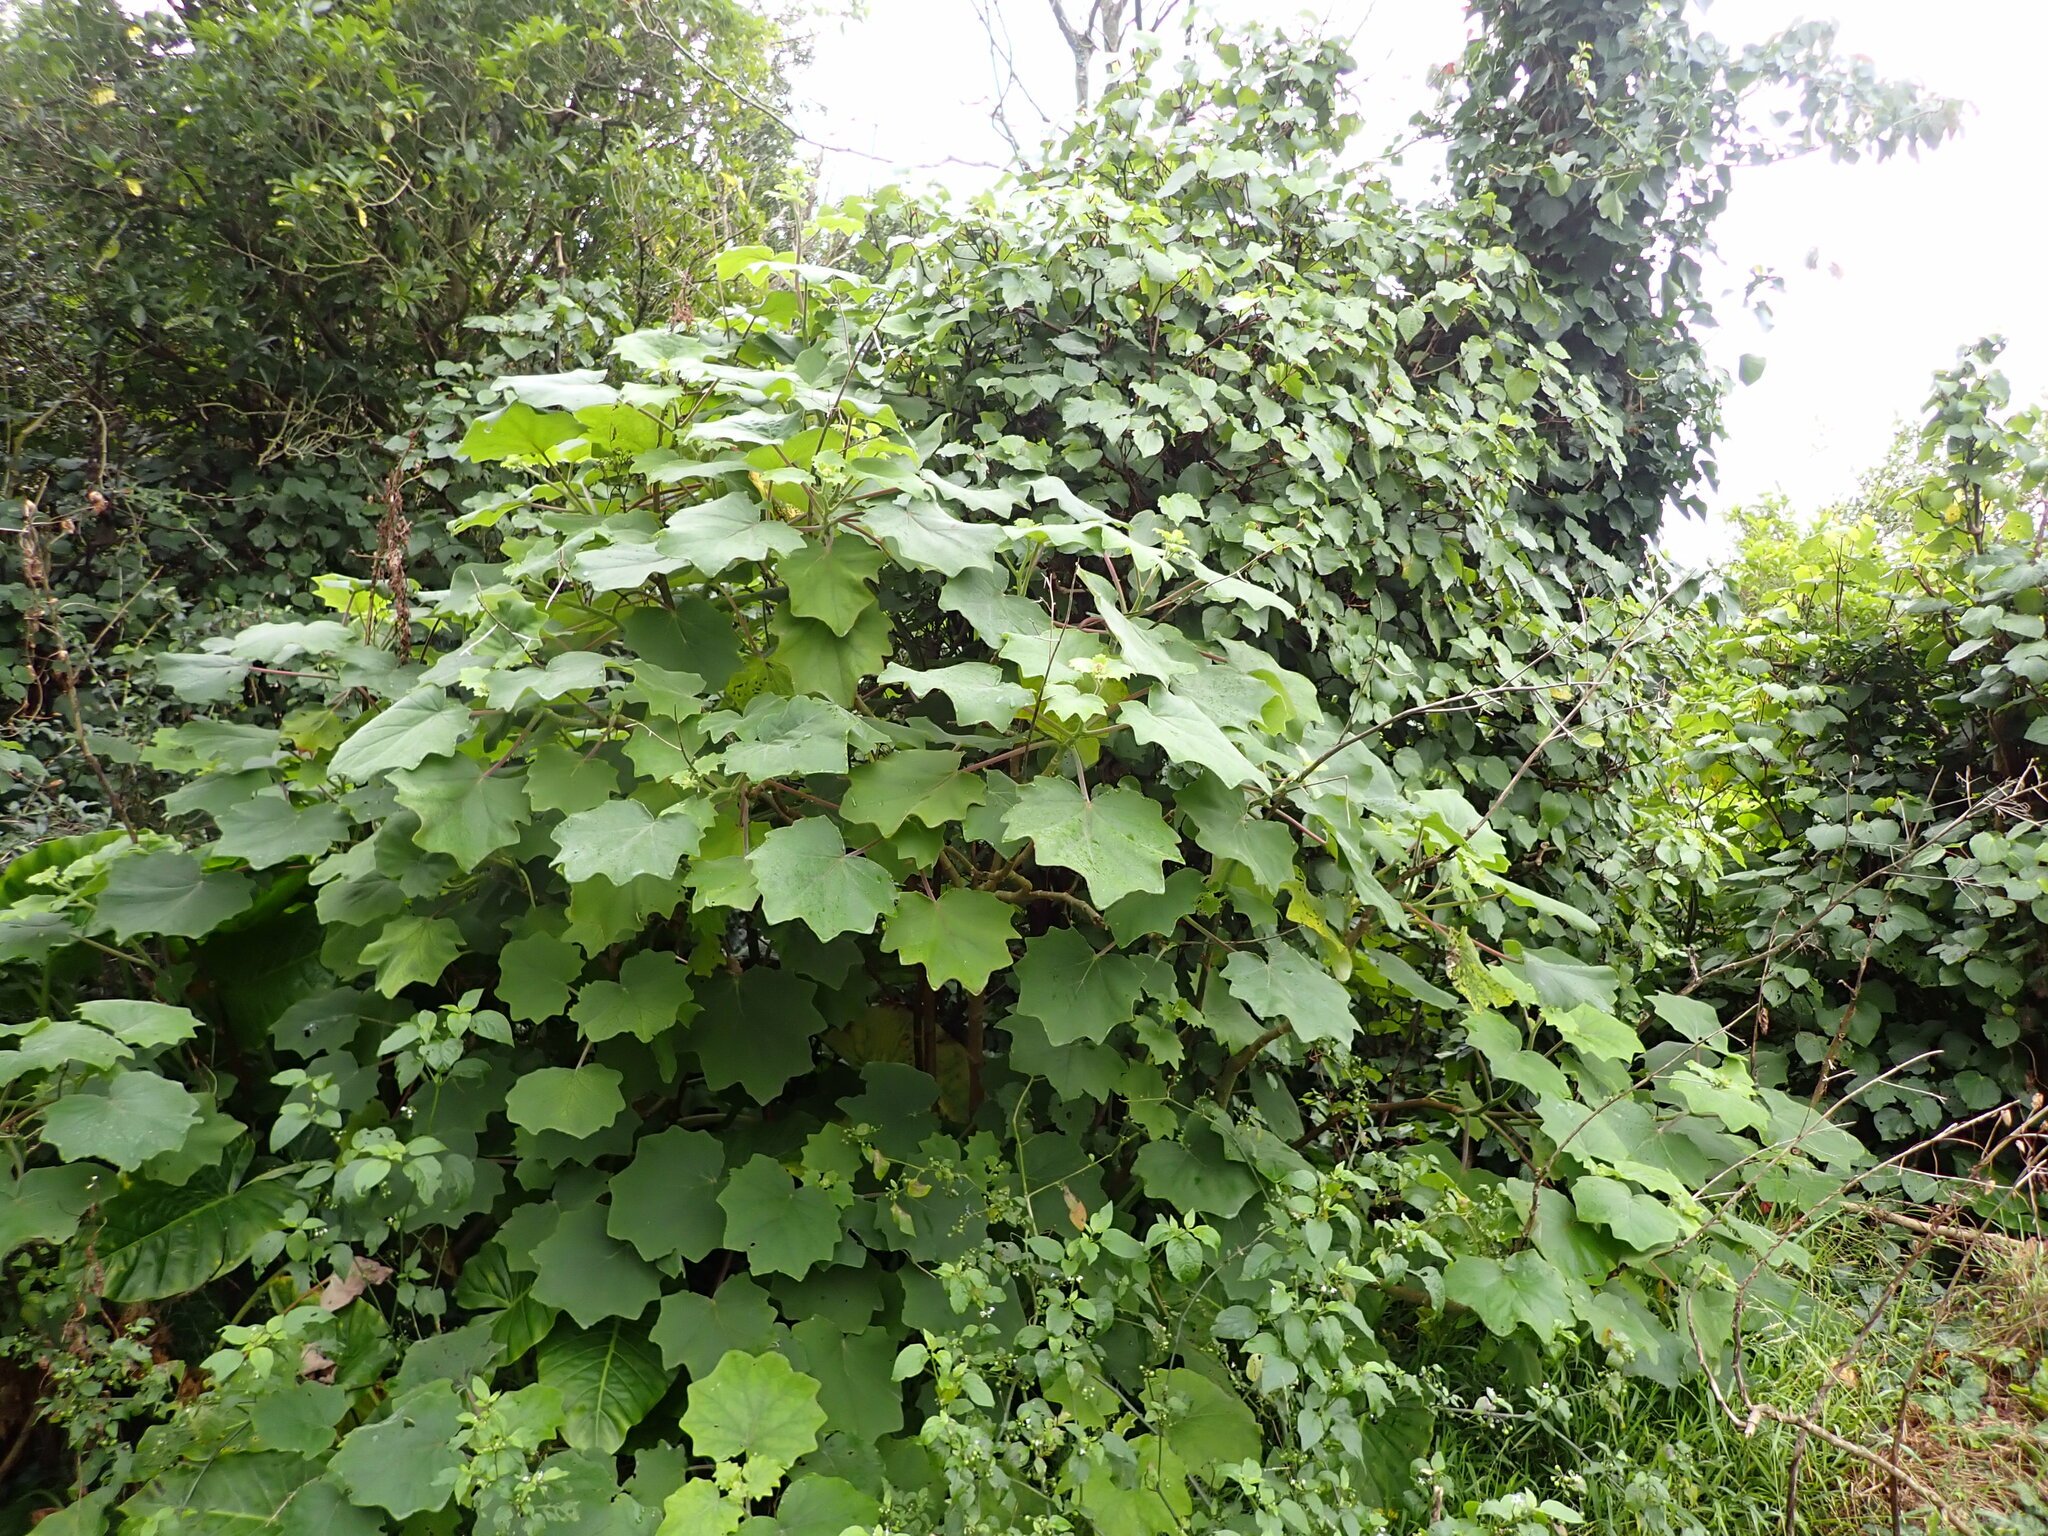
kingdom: Plantae
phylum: Tracheophyta
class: Magnoliopsida
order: Asterales
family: Asteraceae
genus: Roldana
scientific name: Roldana petasitis
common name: California-geranium
